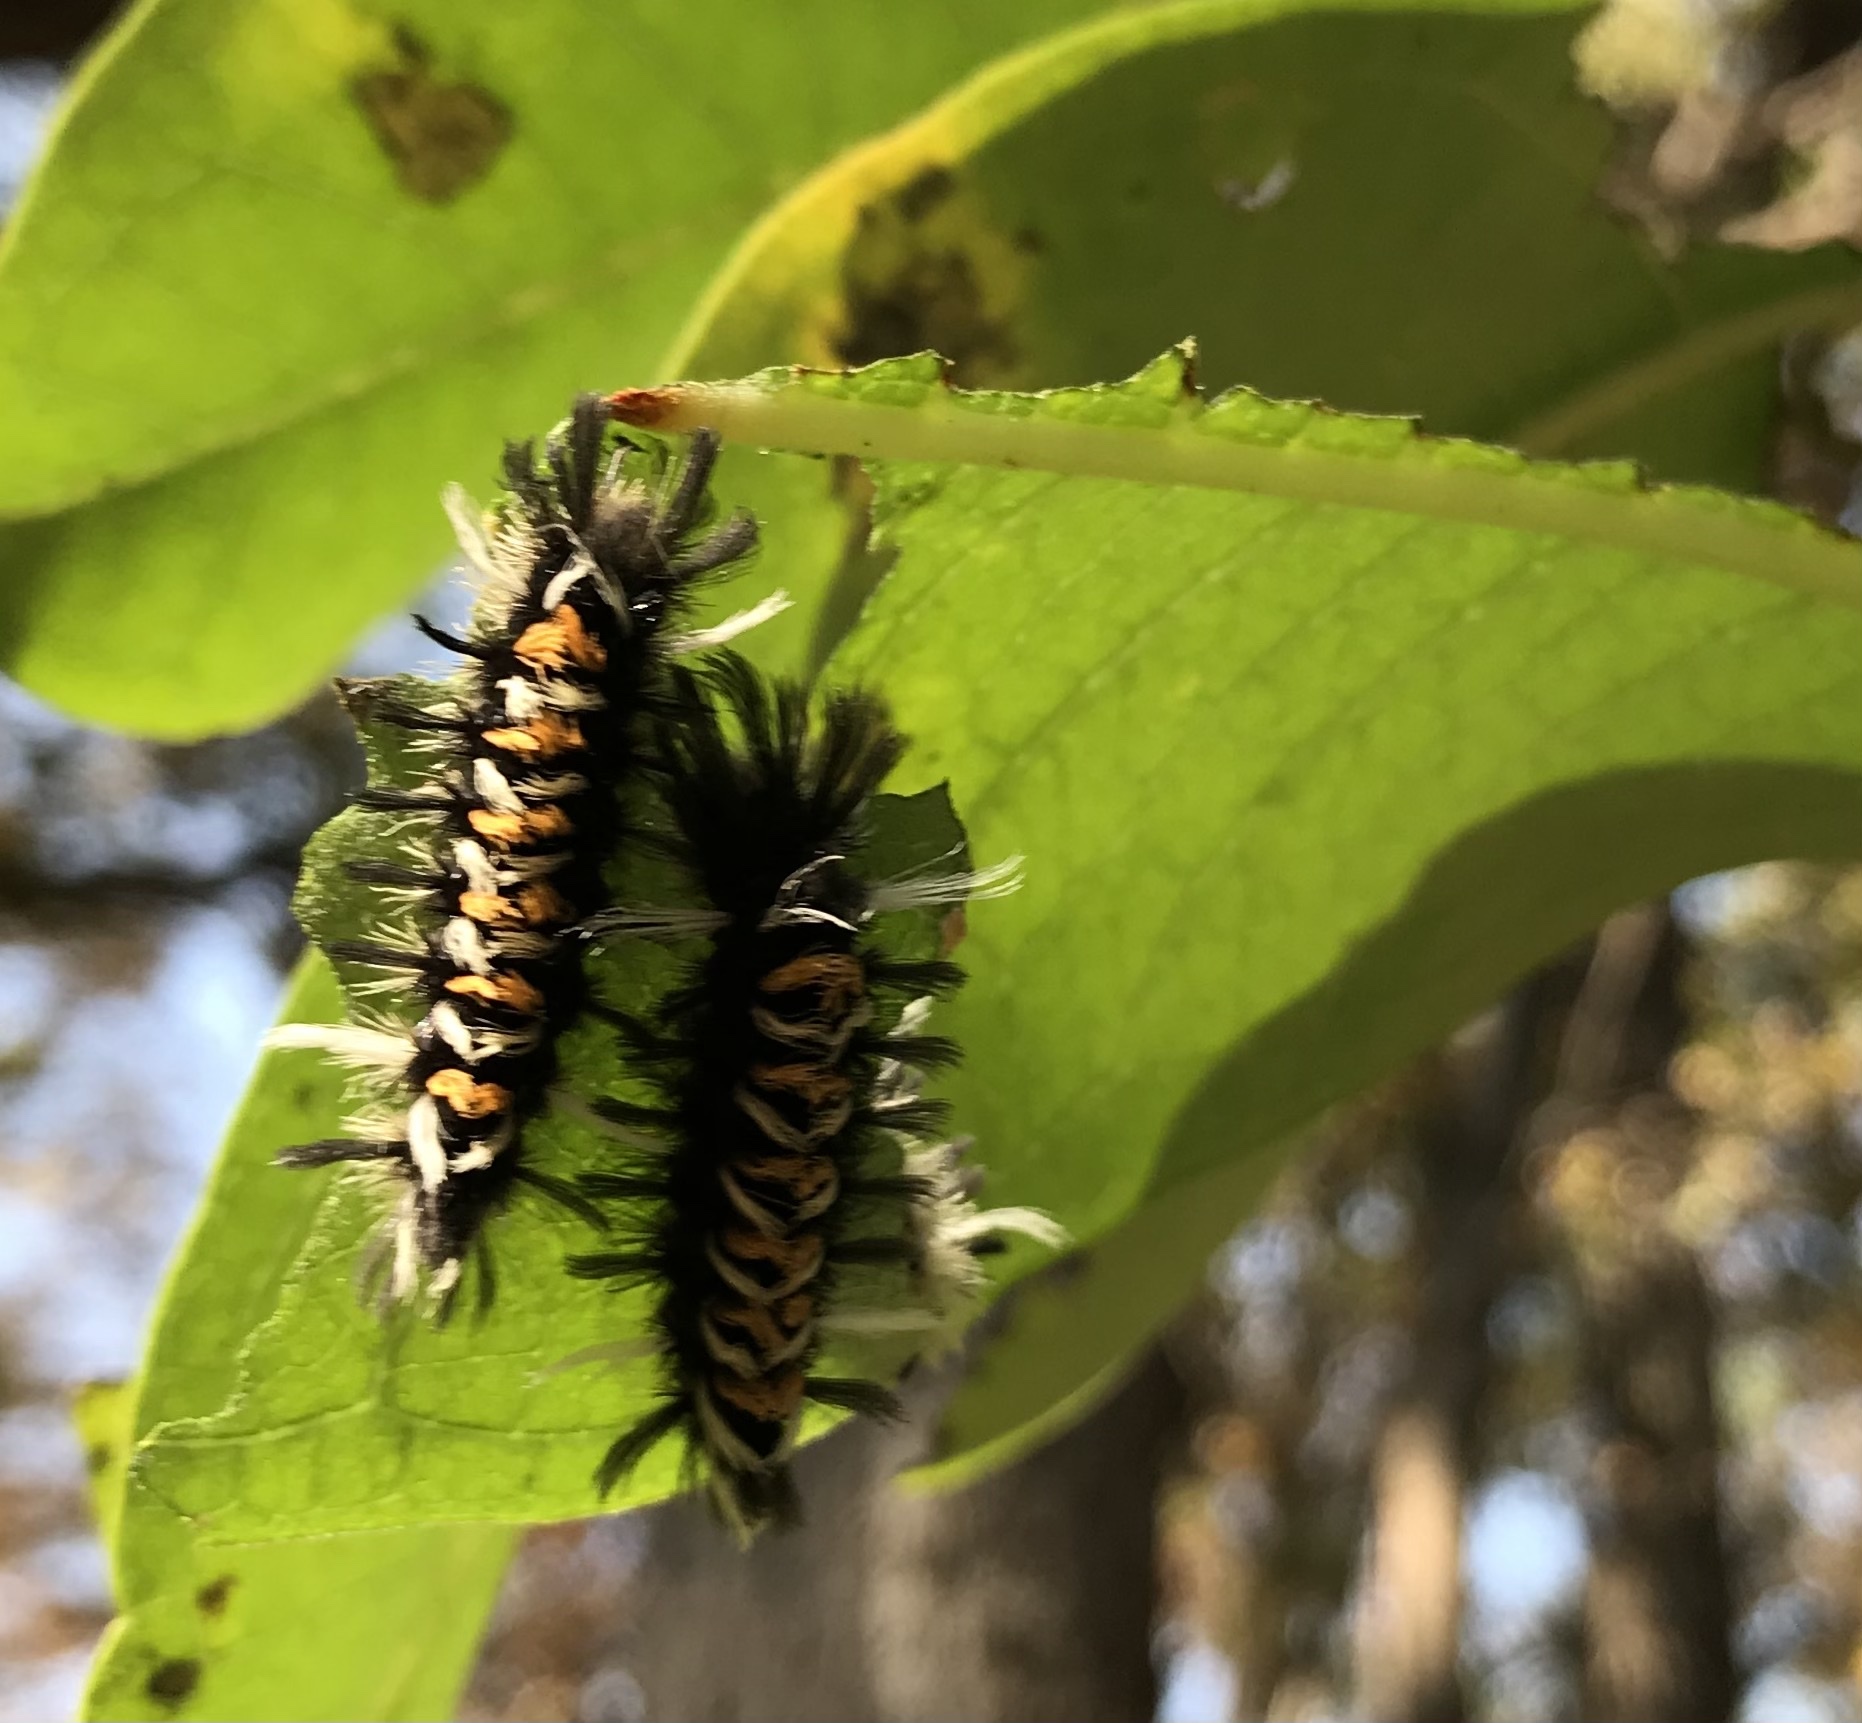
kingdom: Animalia
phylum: Arthropoda
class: Insecta
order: Lepidoptera
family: Erebidae
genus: Euchaetes
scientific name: Euchaetes egle
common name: Milkweed tussock moth
